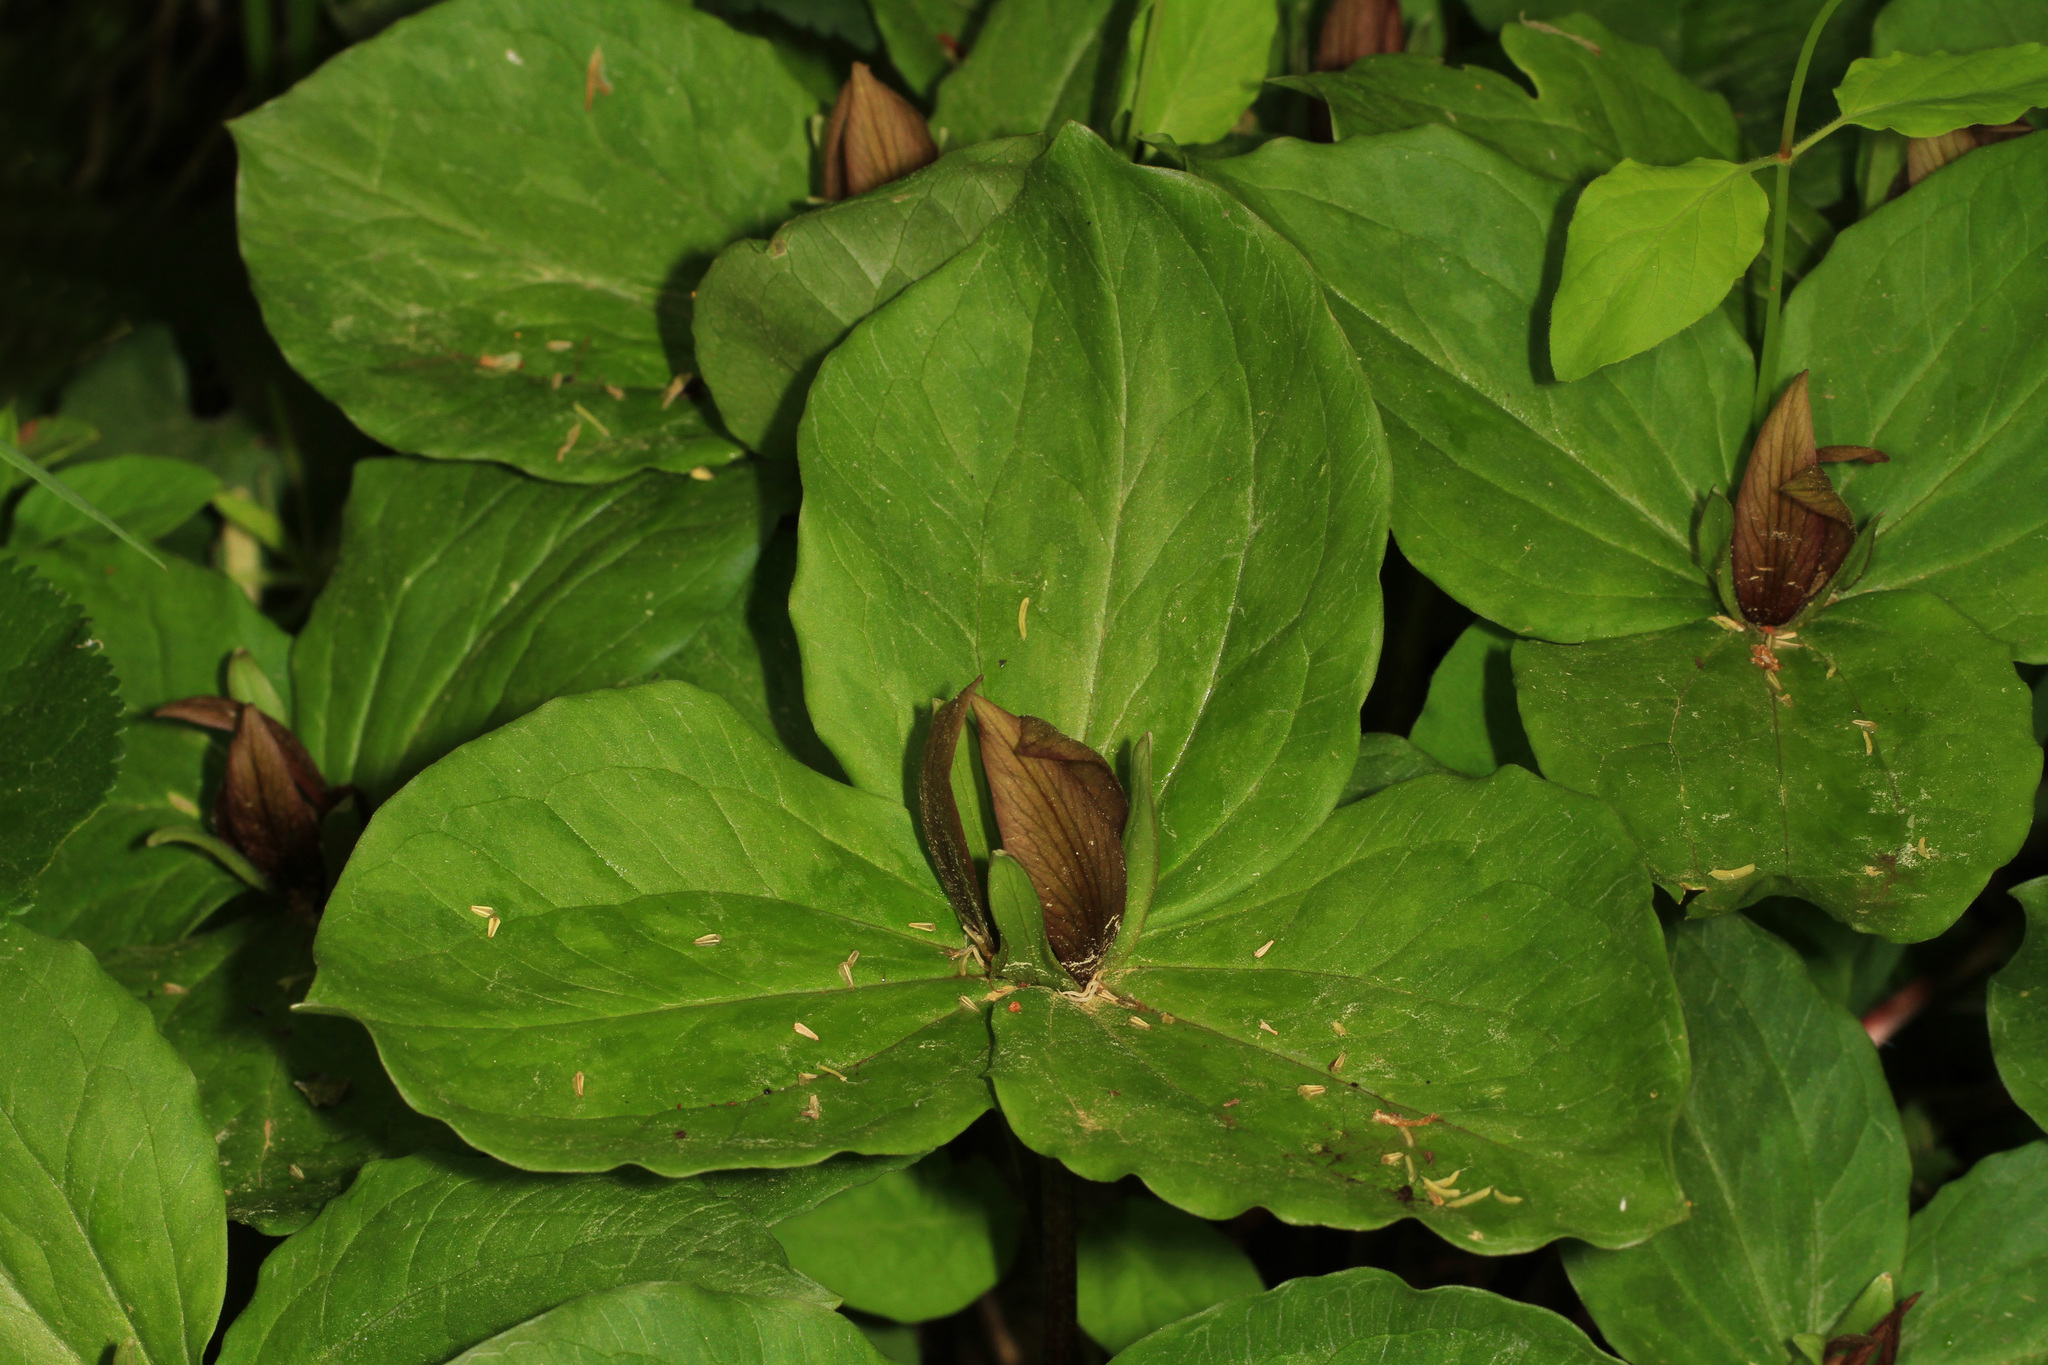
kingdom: Plantae
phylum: Tracheophyta
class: Liliopsida
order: Liliales
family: Melanthiaceae
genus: Trillium
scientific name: Trillium sessile
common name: Sessile trillium
